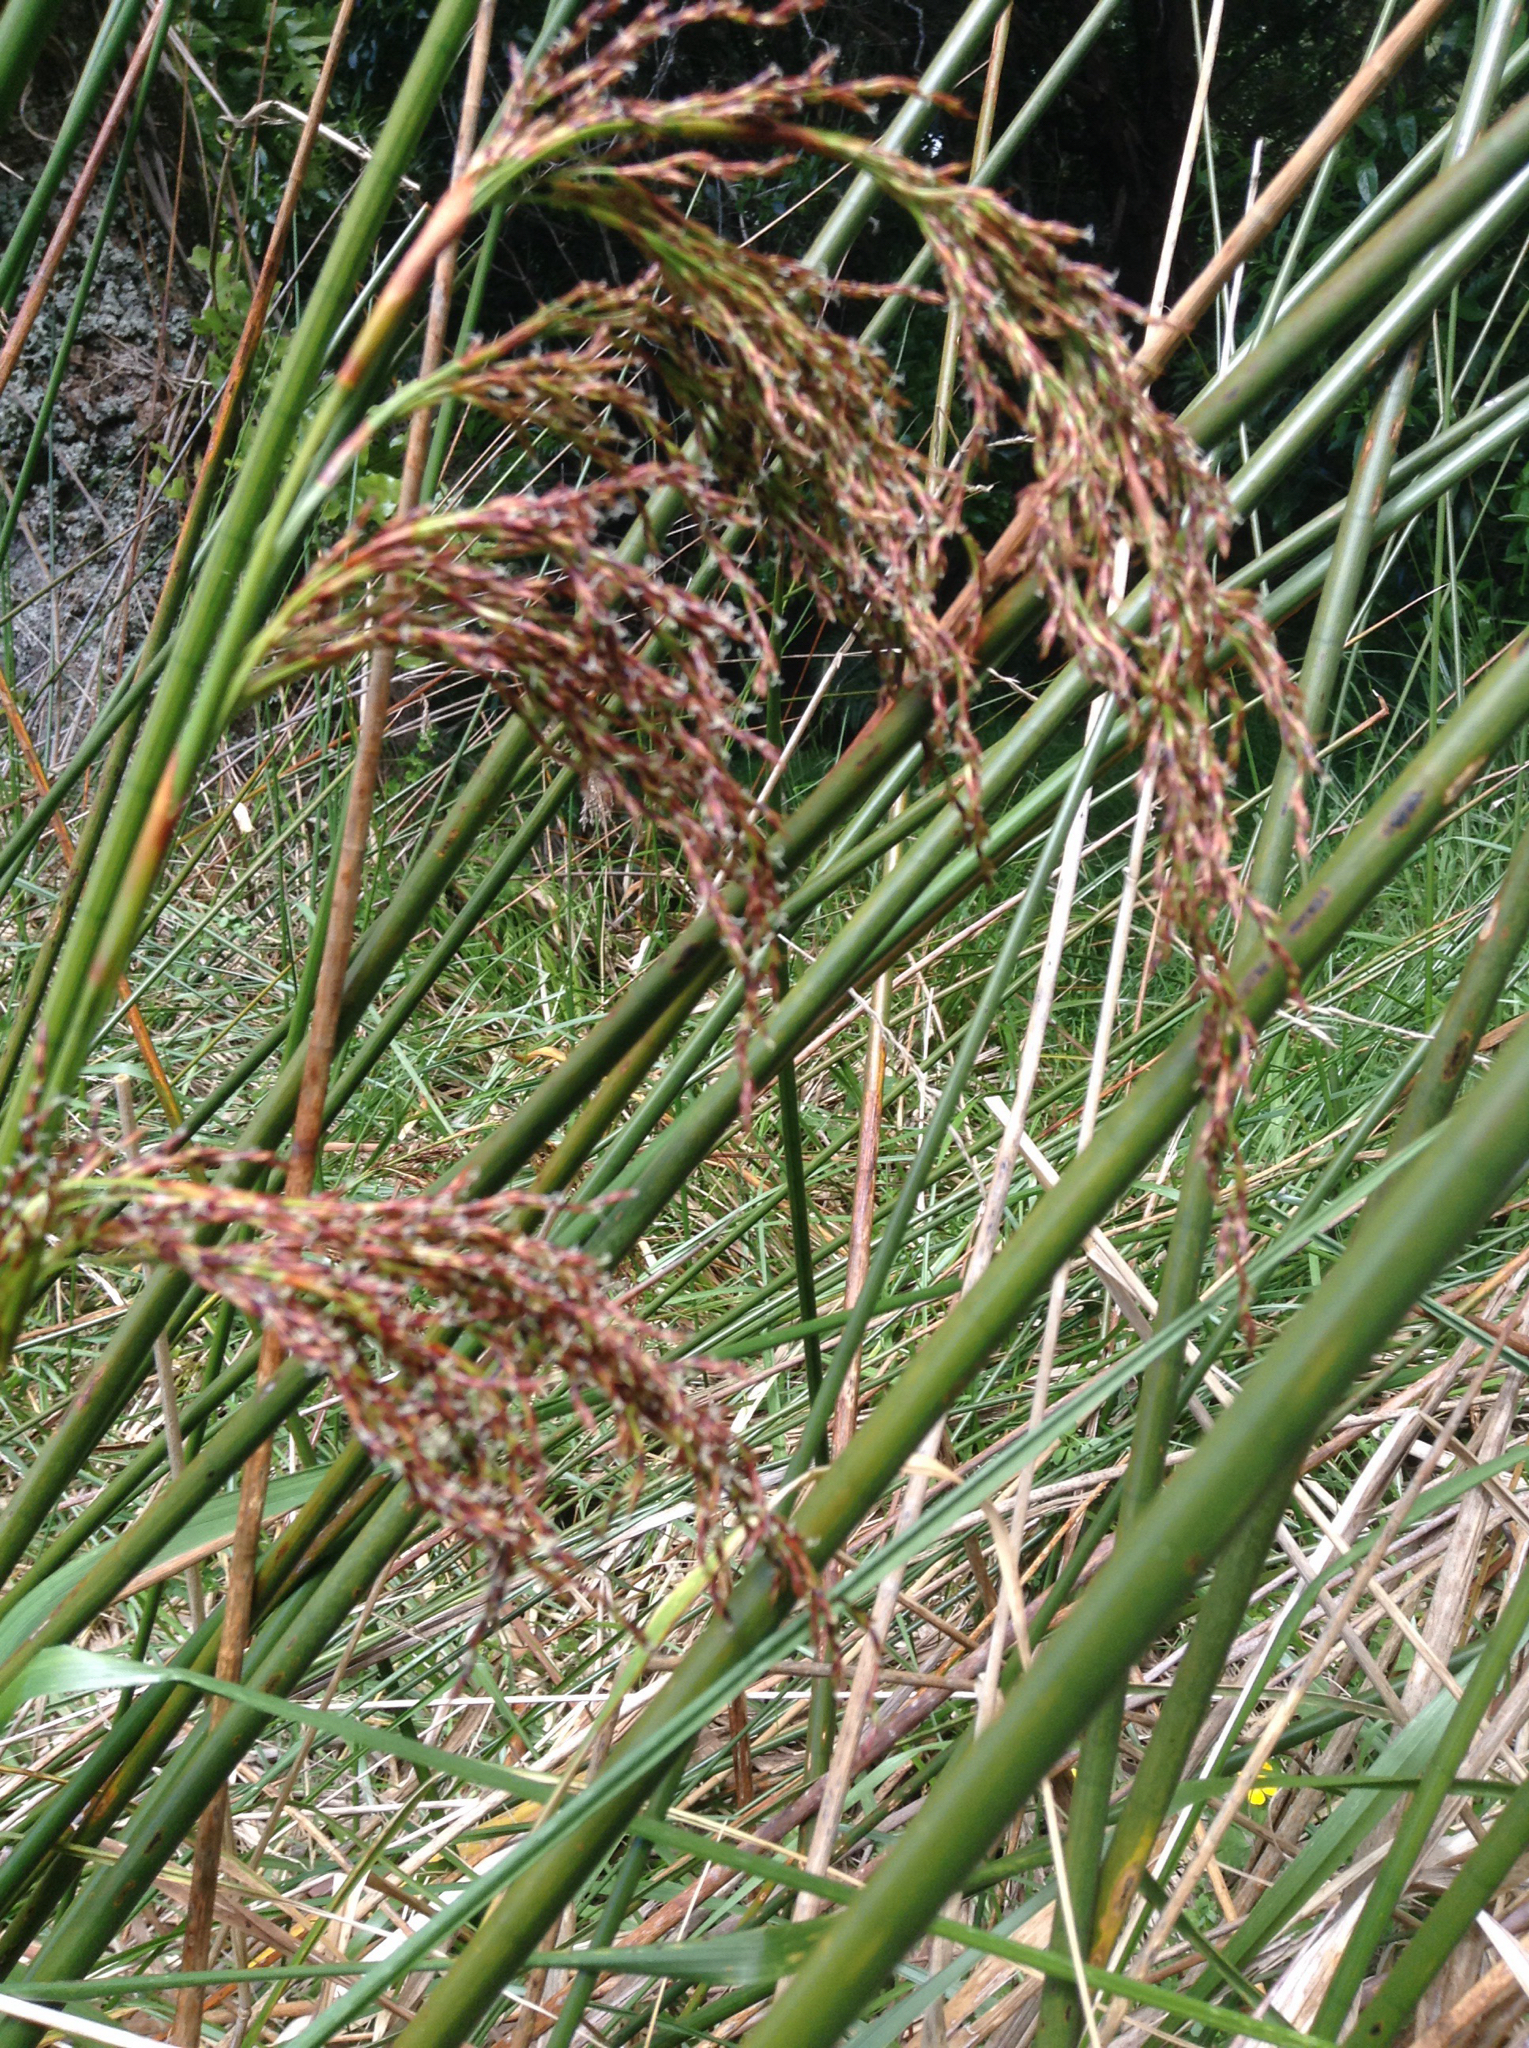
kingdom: Plantae
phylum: Tracheophyta
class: Liliopsida
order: Poales
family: Cyperaceae
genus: Machaerina
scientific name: Machaerina articulata
